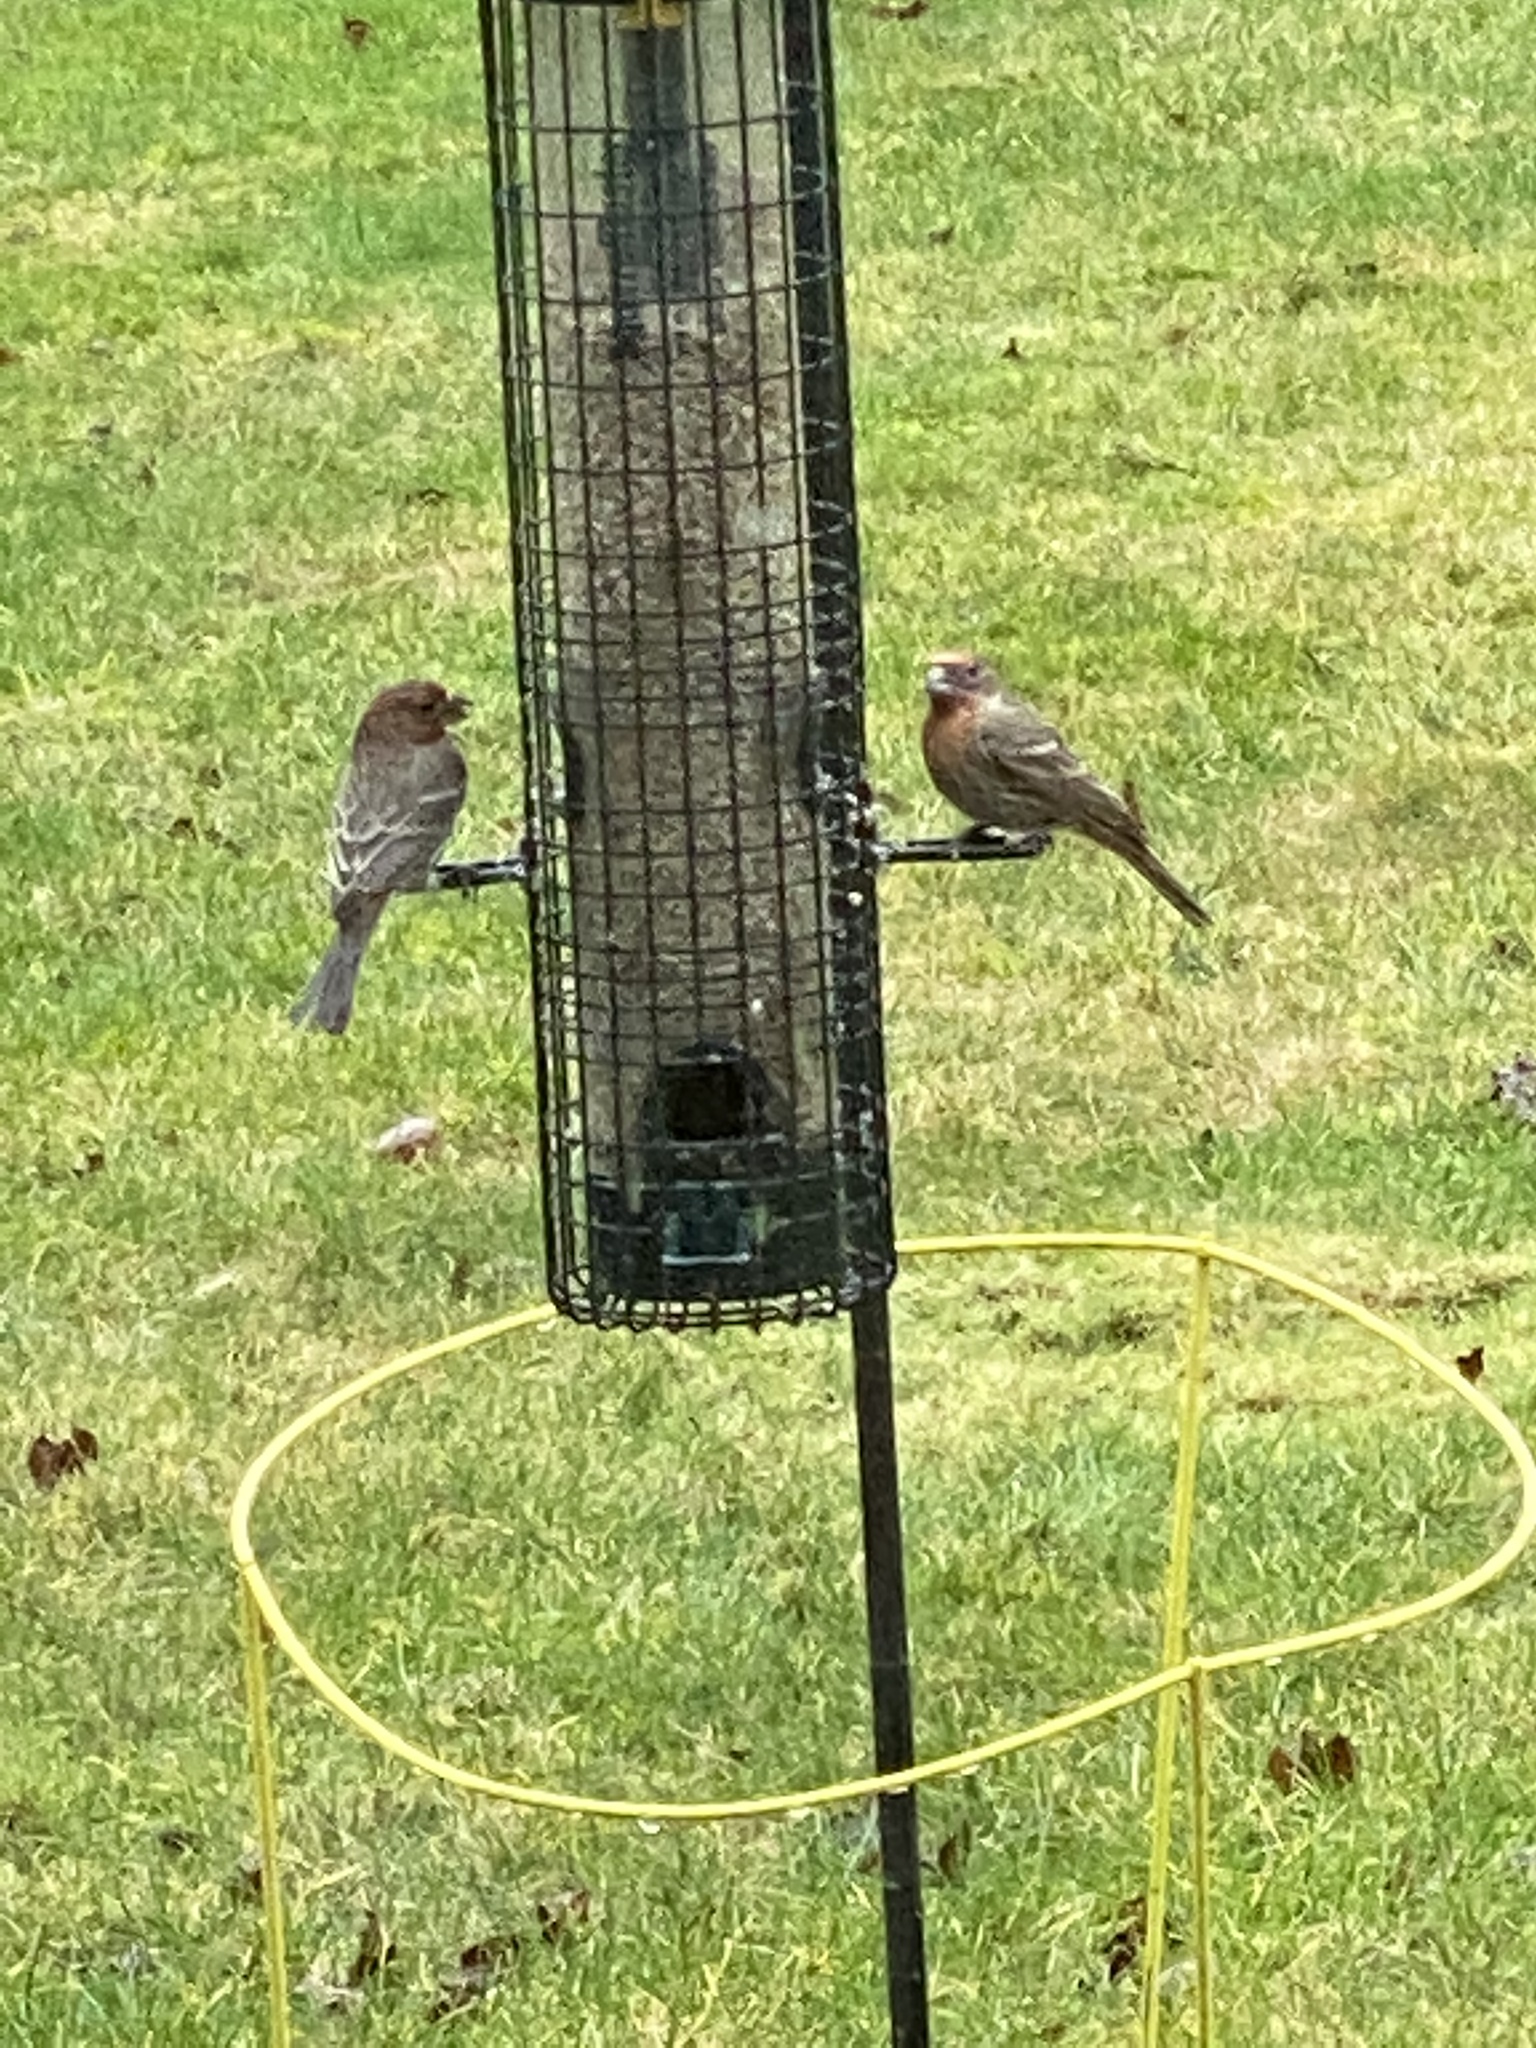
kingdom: Animalia
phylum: Chordata
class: Aves
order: Passeriformes
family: Fringillidae
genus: Haemorhous
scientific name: Haemorhous mexicanus
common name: House finch
